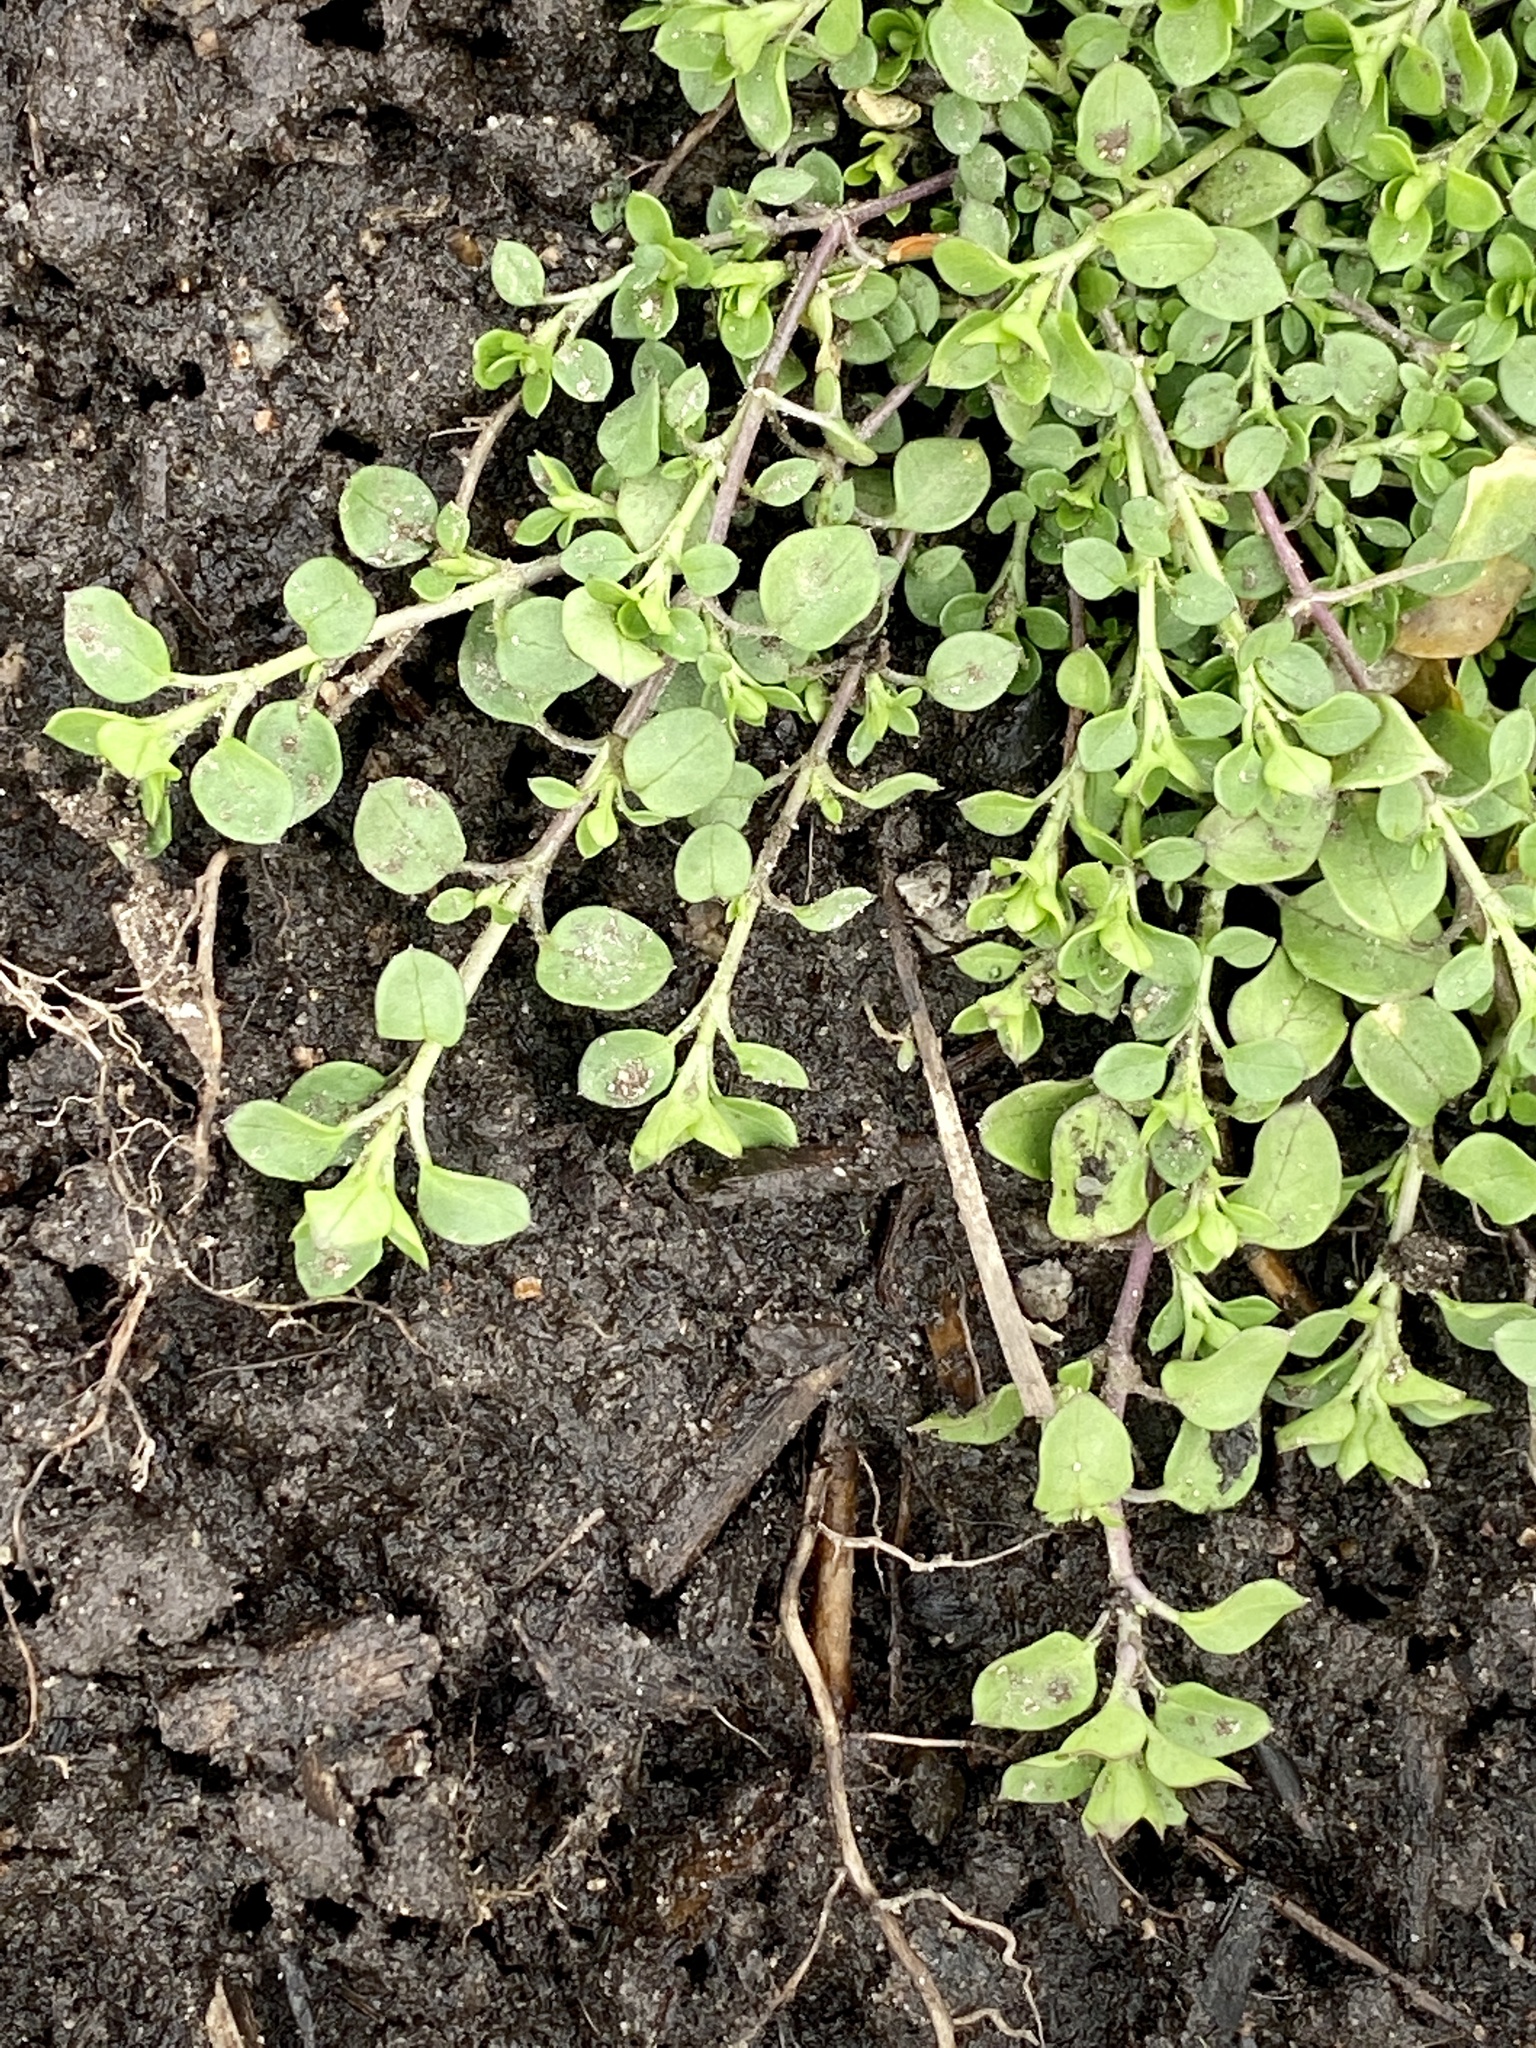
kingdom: Plantae
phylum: Tracheophyta
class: Magnoliopsida
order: Caryophyllales
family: Caryophyllaceae
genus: Stellaria
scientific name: Stellaria media
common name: Common chickweed
